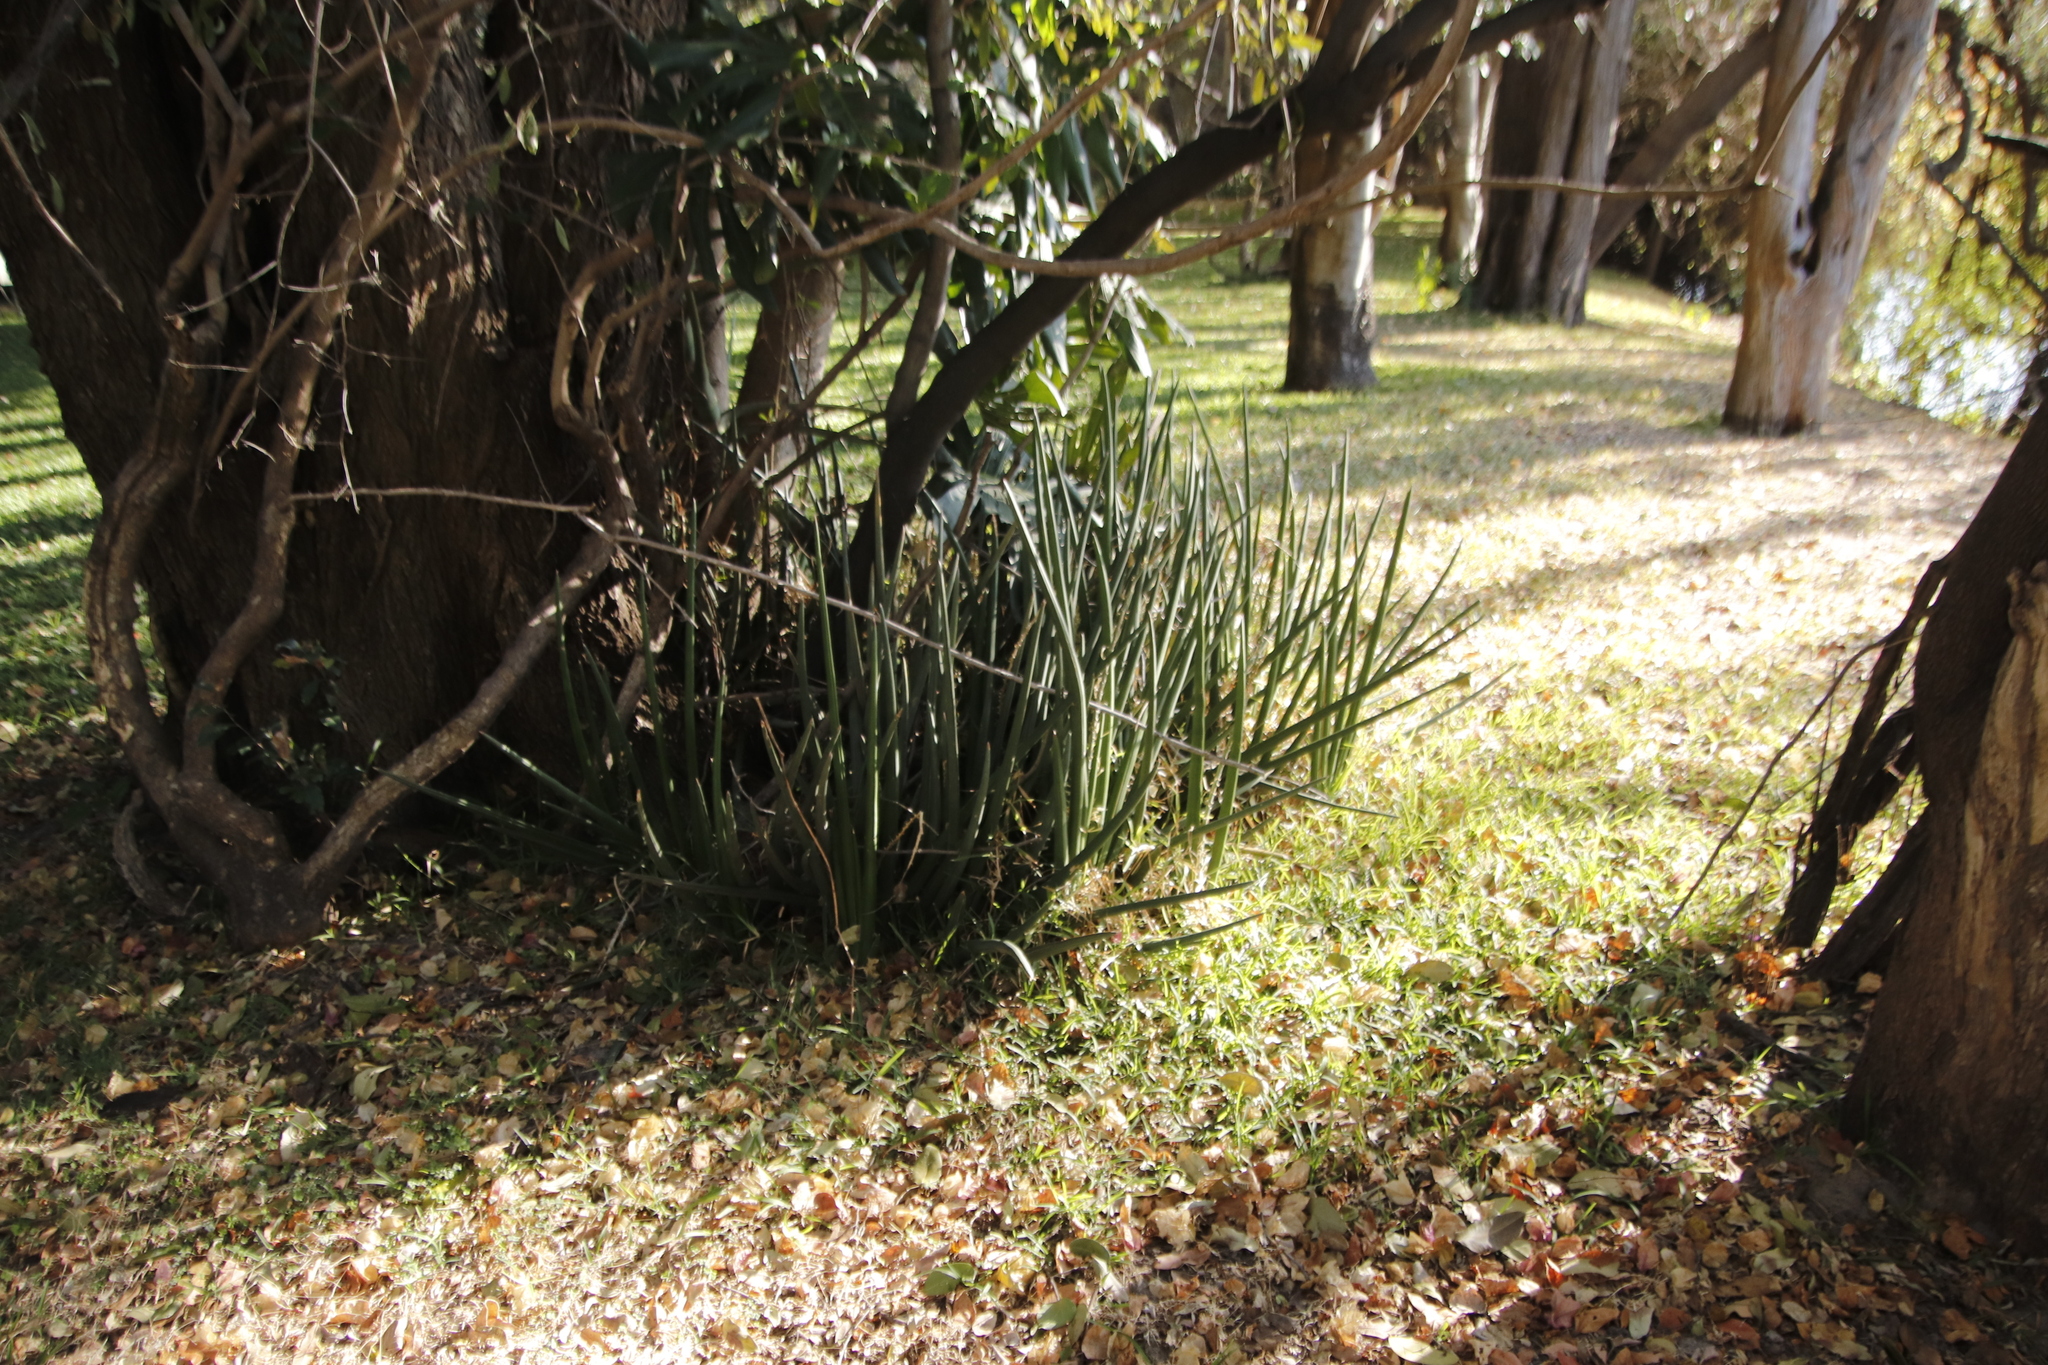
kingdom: Plantae
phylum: Tracheophyta
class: Liliopsida
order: Asparagales
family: Asparagaceae
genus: Dracaena
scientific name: Dracaena pearsonii
